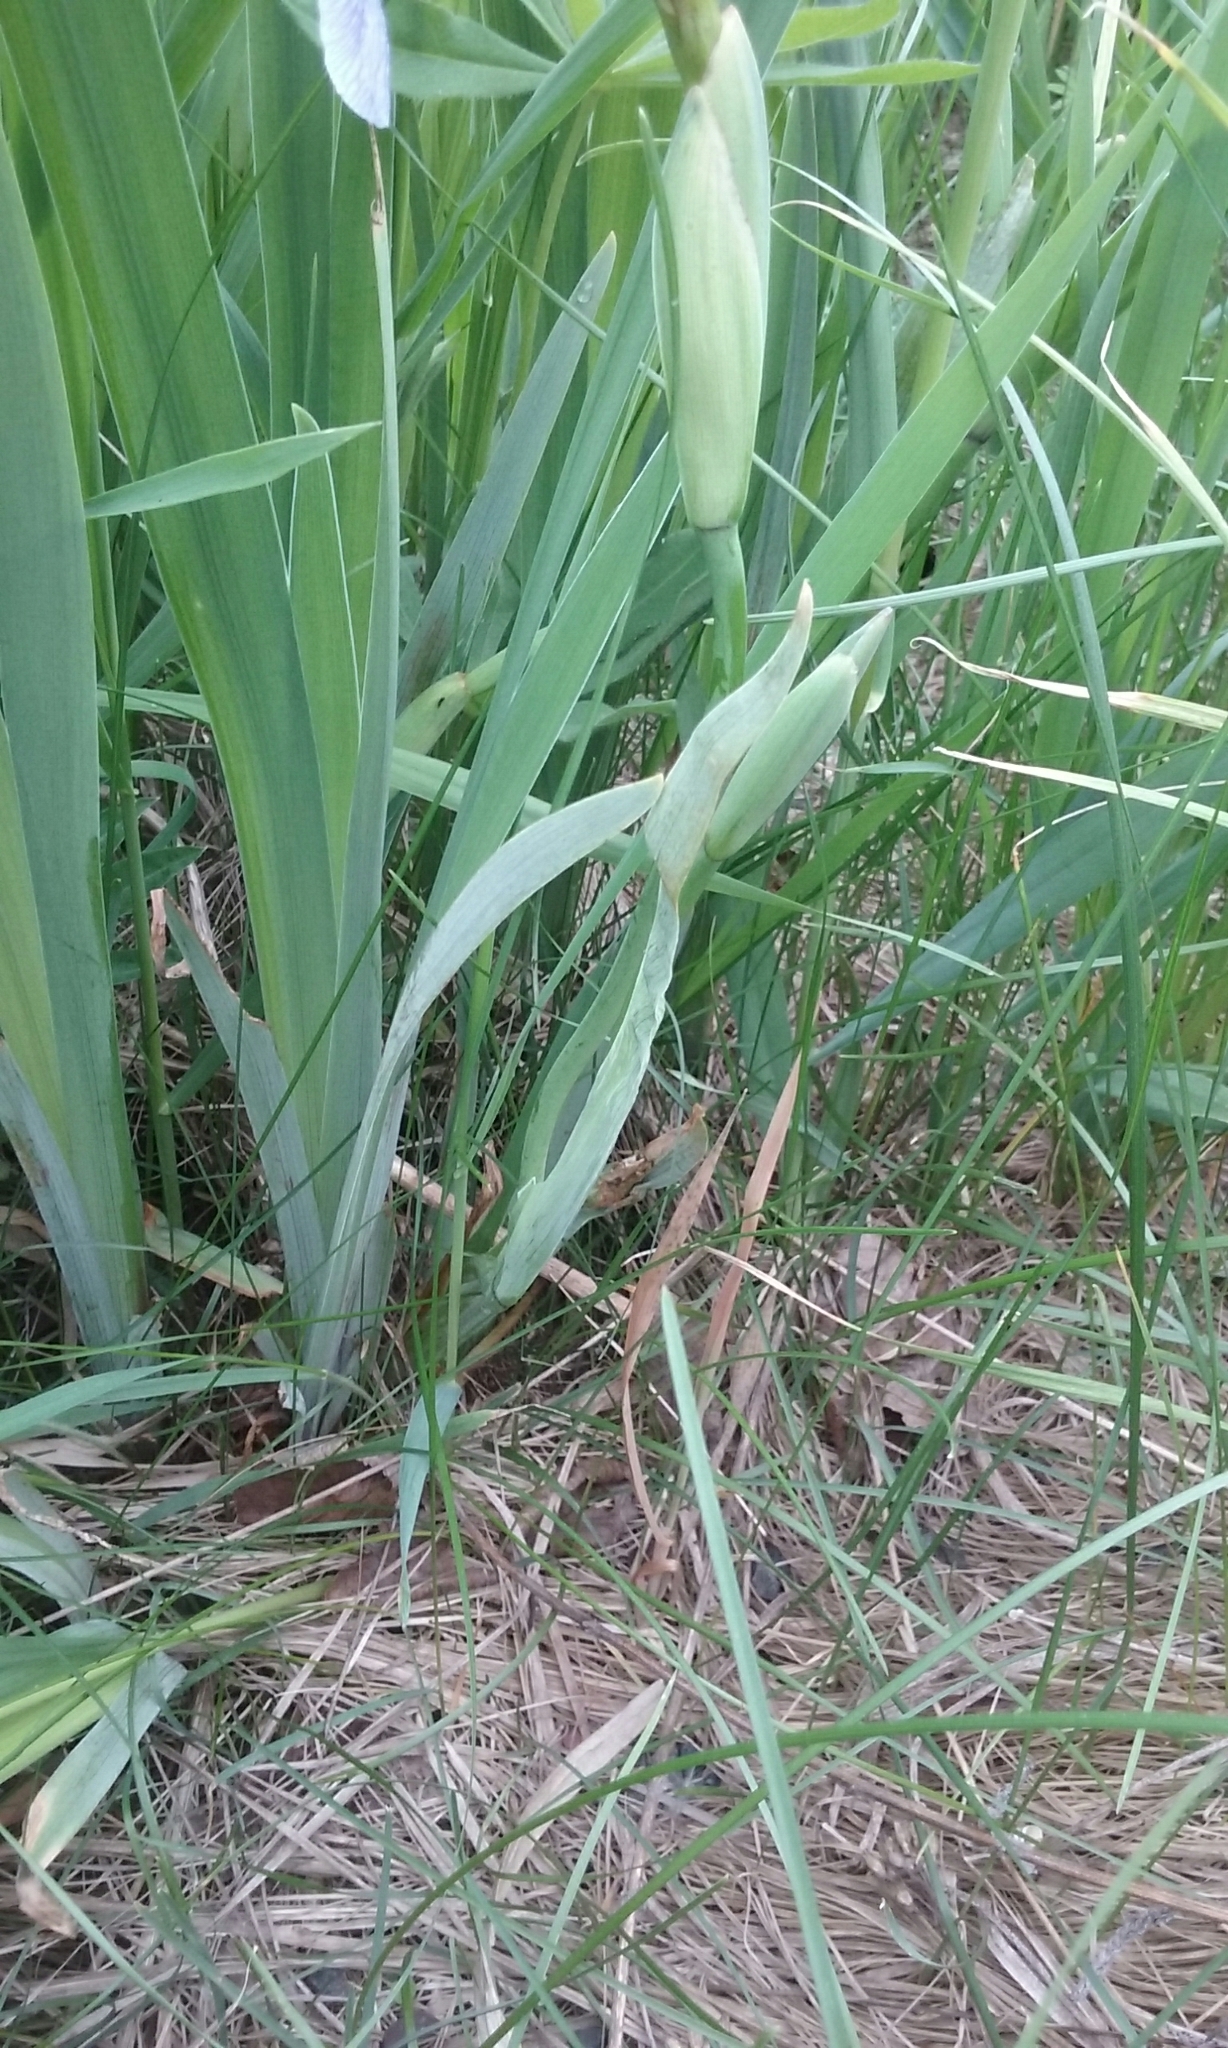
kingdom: Plantae
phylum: Tracheophyta
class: Liliopsida
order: Asparagales
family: Iridaceae
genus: Iris
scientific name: Iris versicolor
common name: Purple iris
